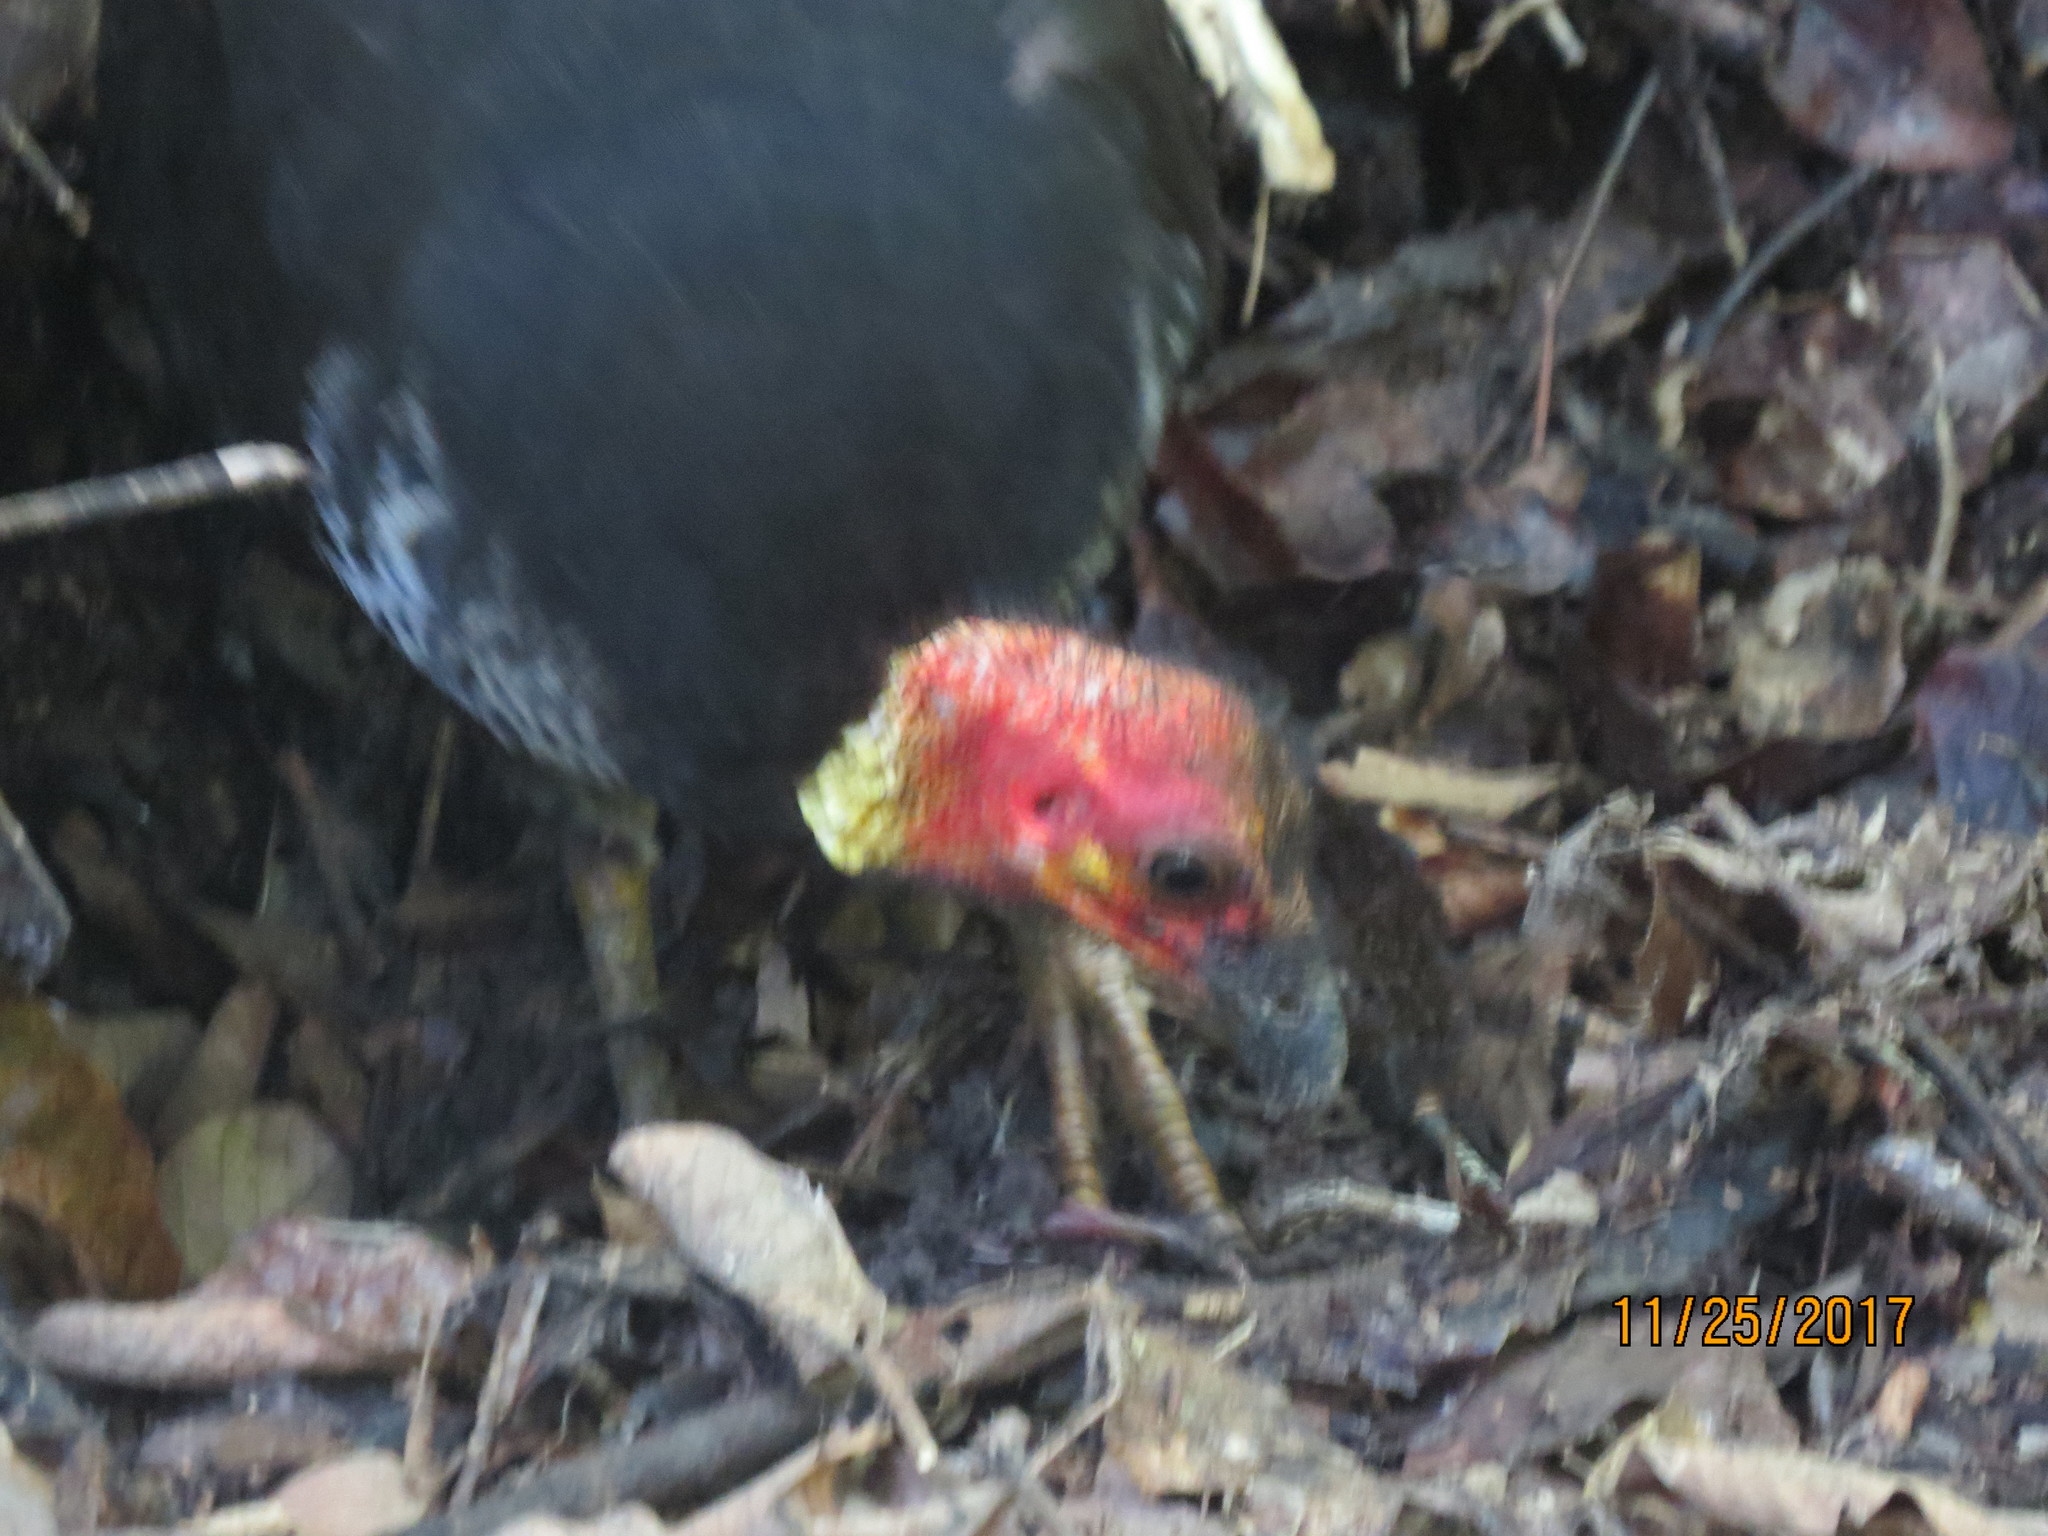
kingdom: Animalia
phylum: Chordata
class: Aves
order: Galliformes
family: Megapodiidae
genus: Alectura
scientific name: Alectura lathami
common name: Australian brushturkey
